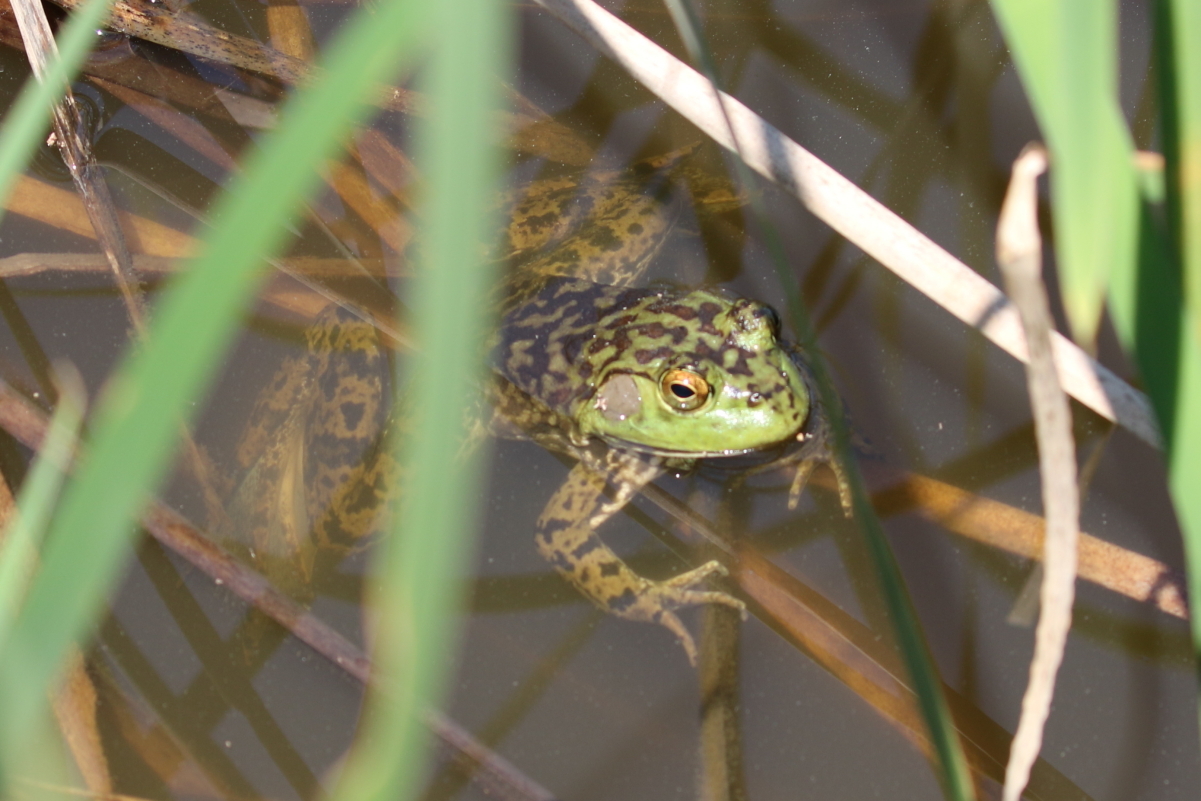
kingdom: Animalia
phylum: Chordata
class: Amphibia
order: Anura
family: Ranidae
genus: Lithobates
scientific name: Lithobates catesbeianus
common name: American bullfrog
